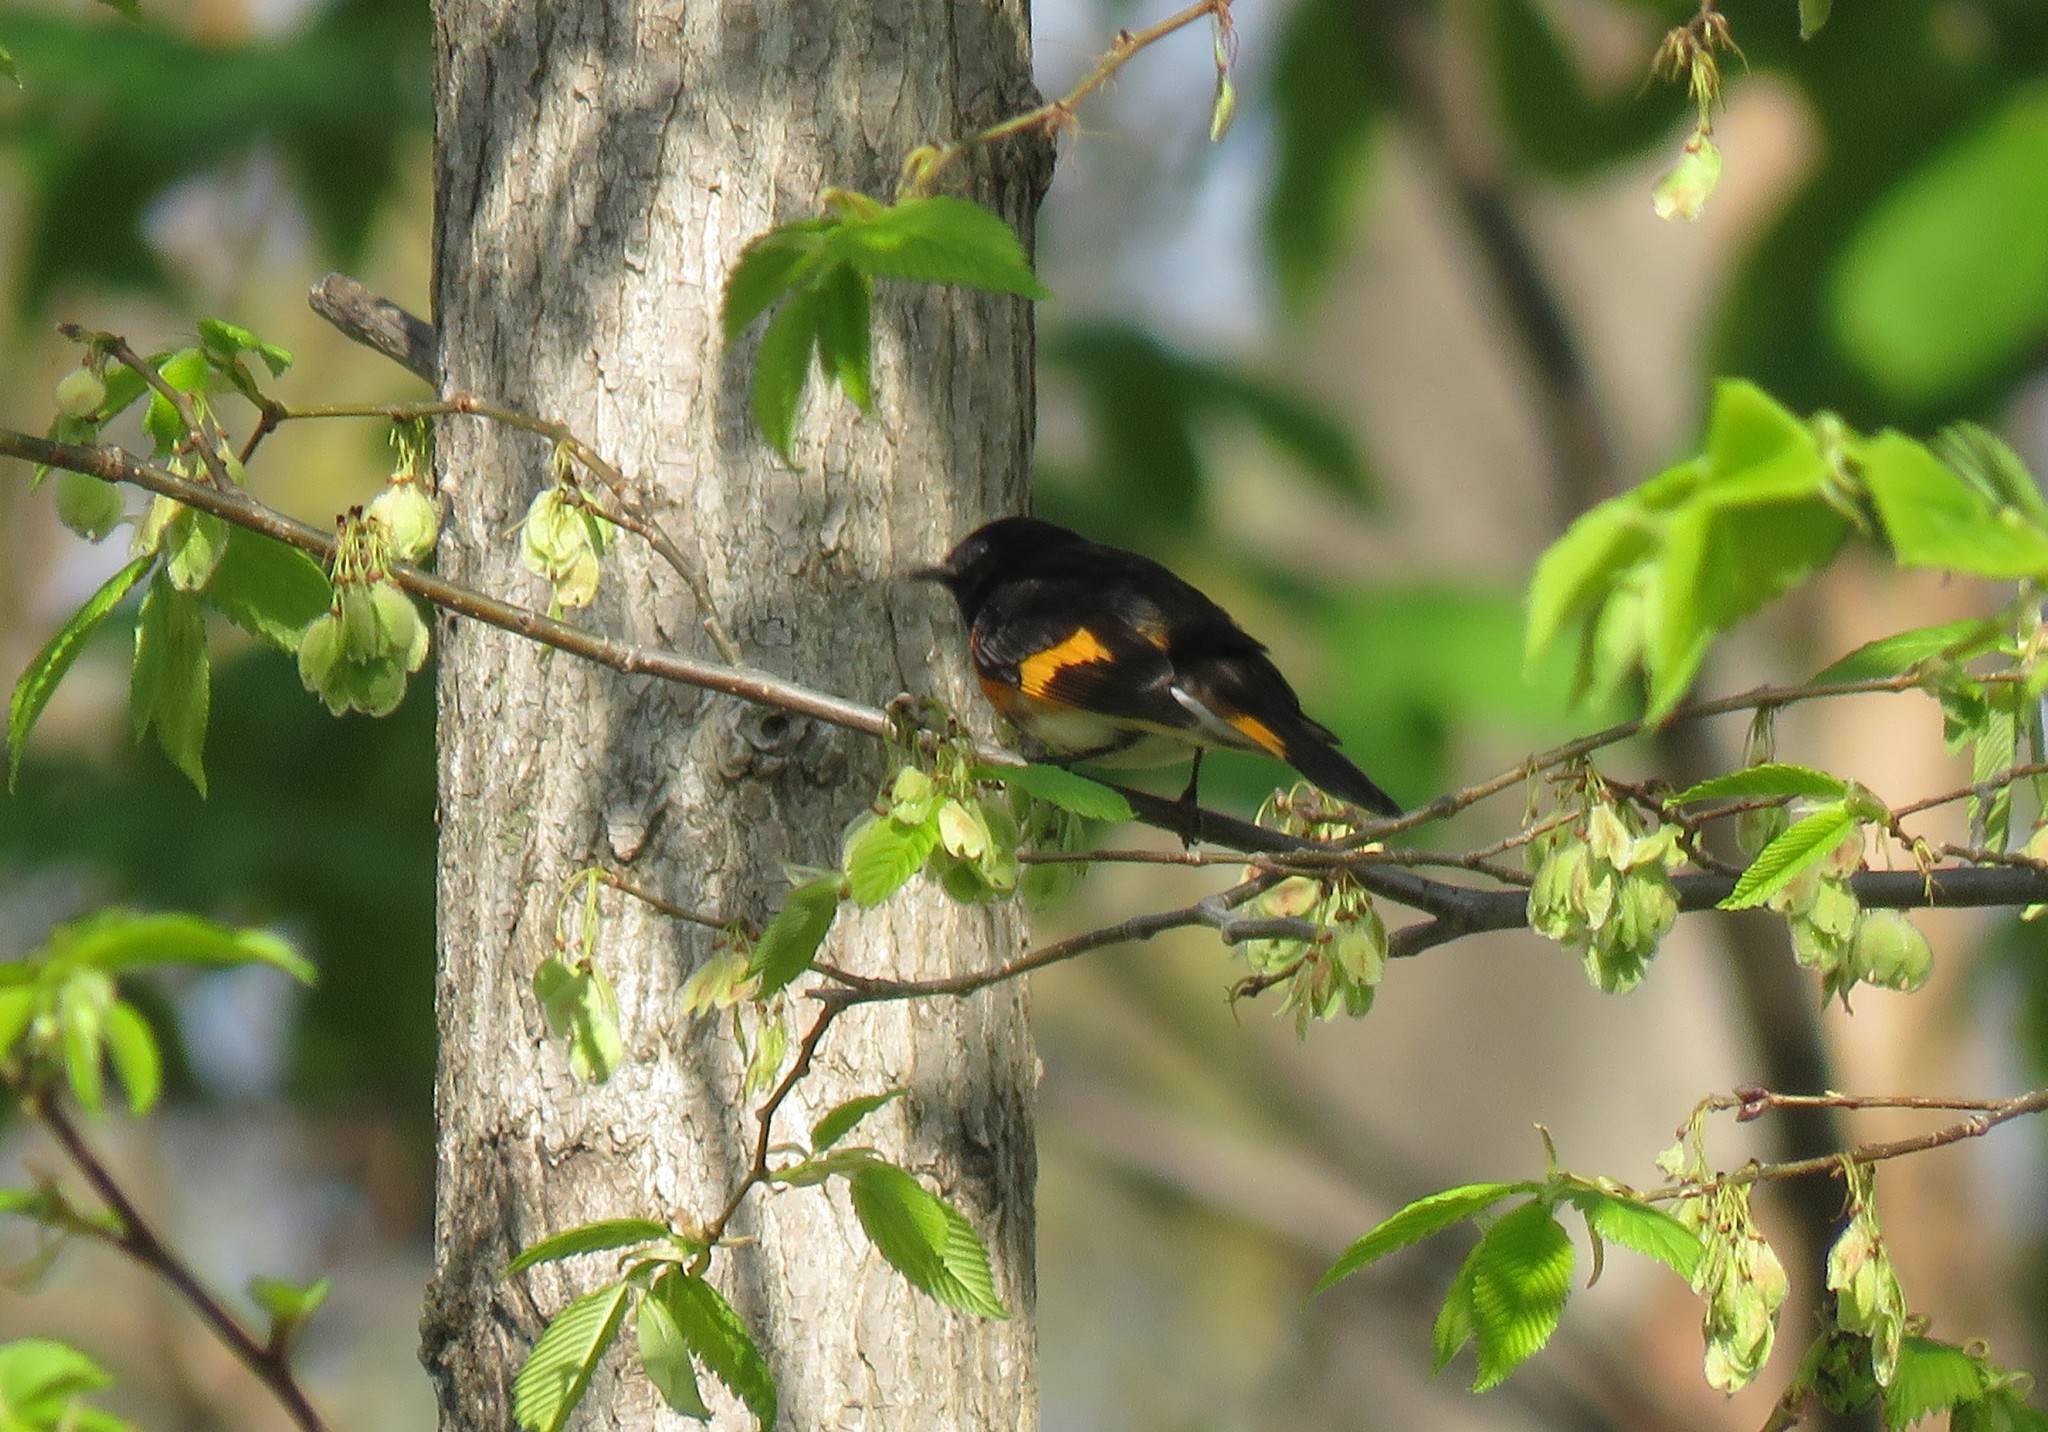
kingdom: Animalia
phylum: Chordata
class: Aves
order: Passeriformes
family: Parulidae
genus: Setophaga
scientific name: Setophaga ruticilla
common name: American redstart
